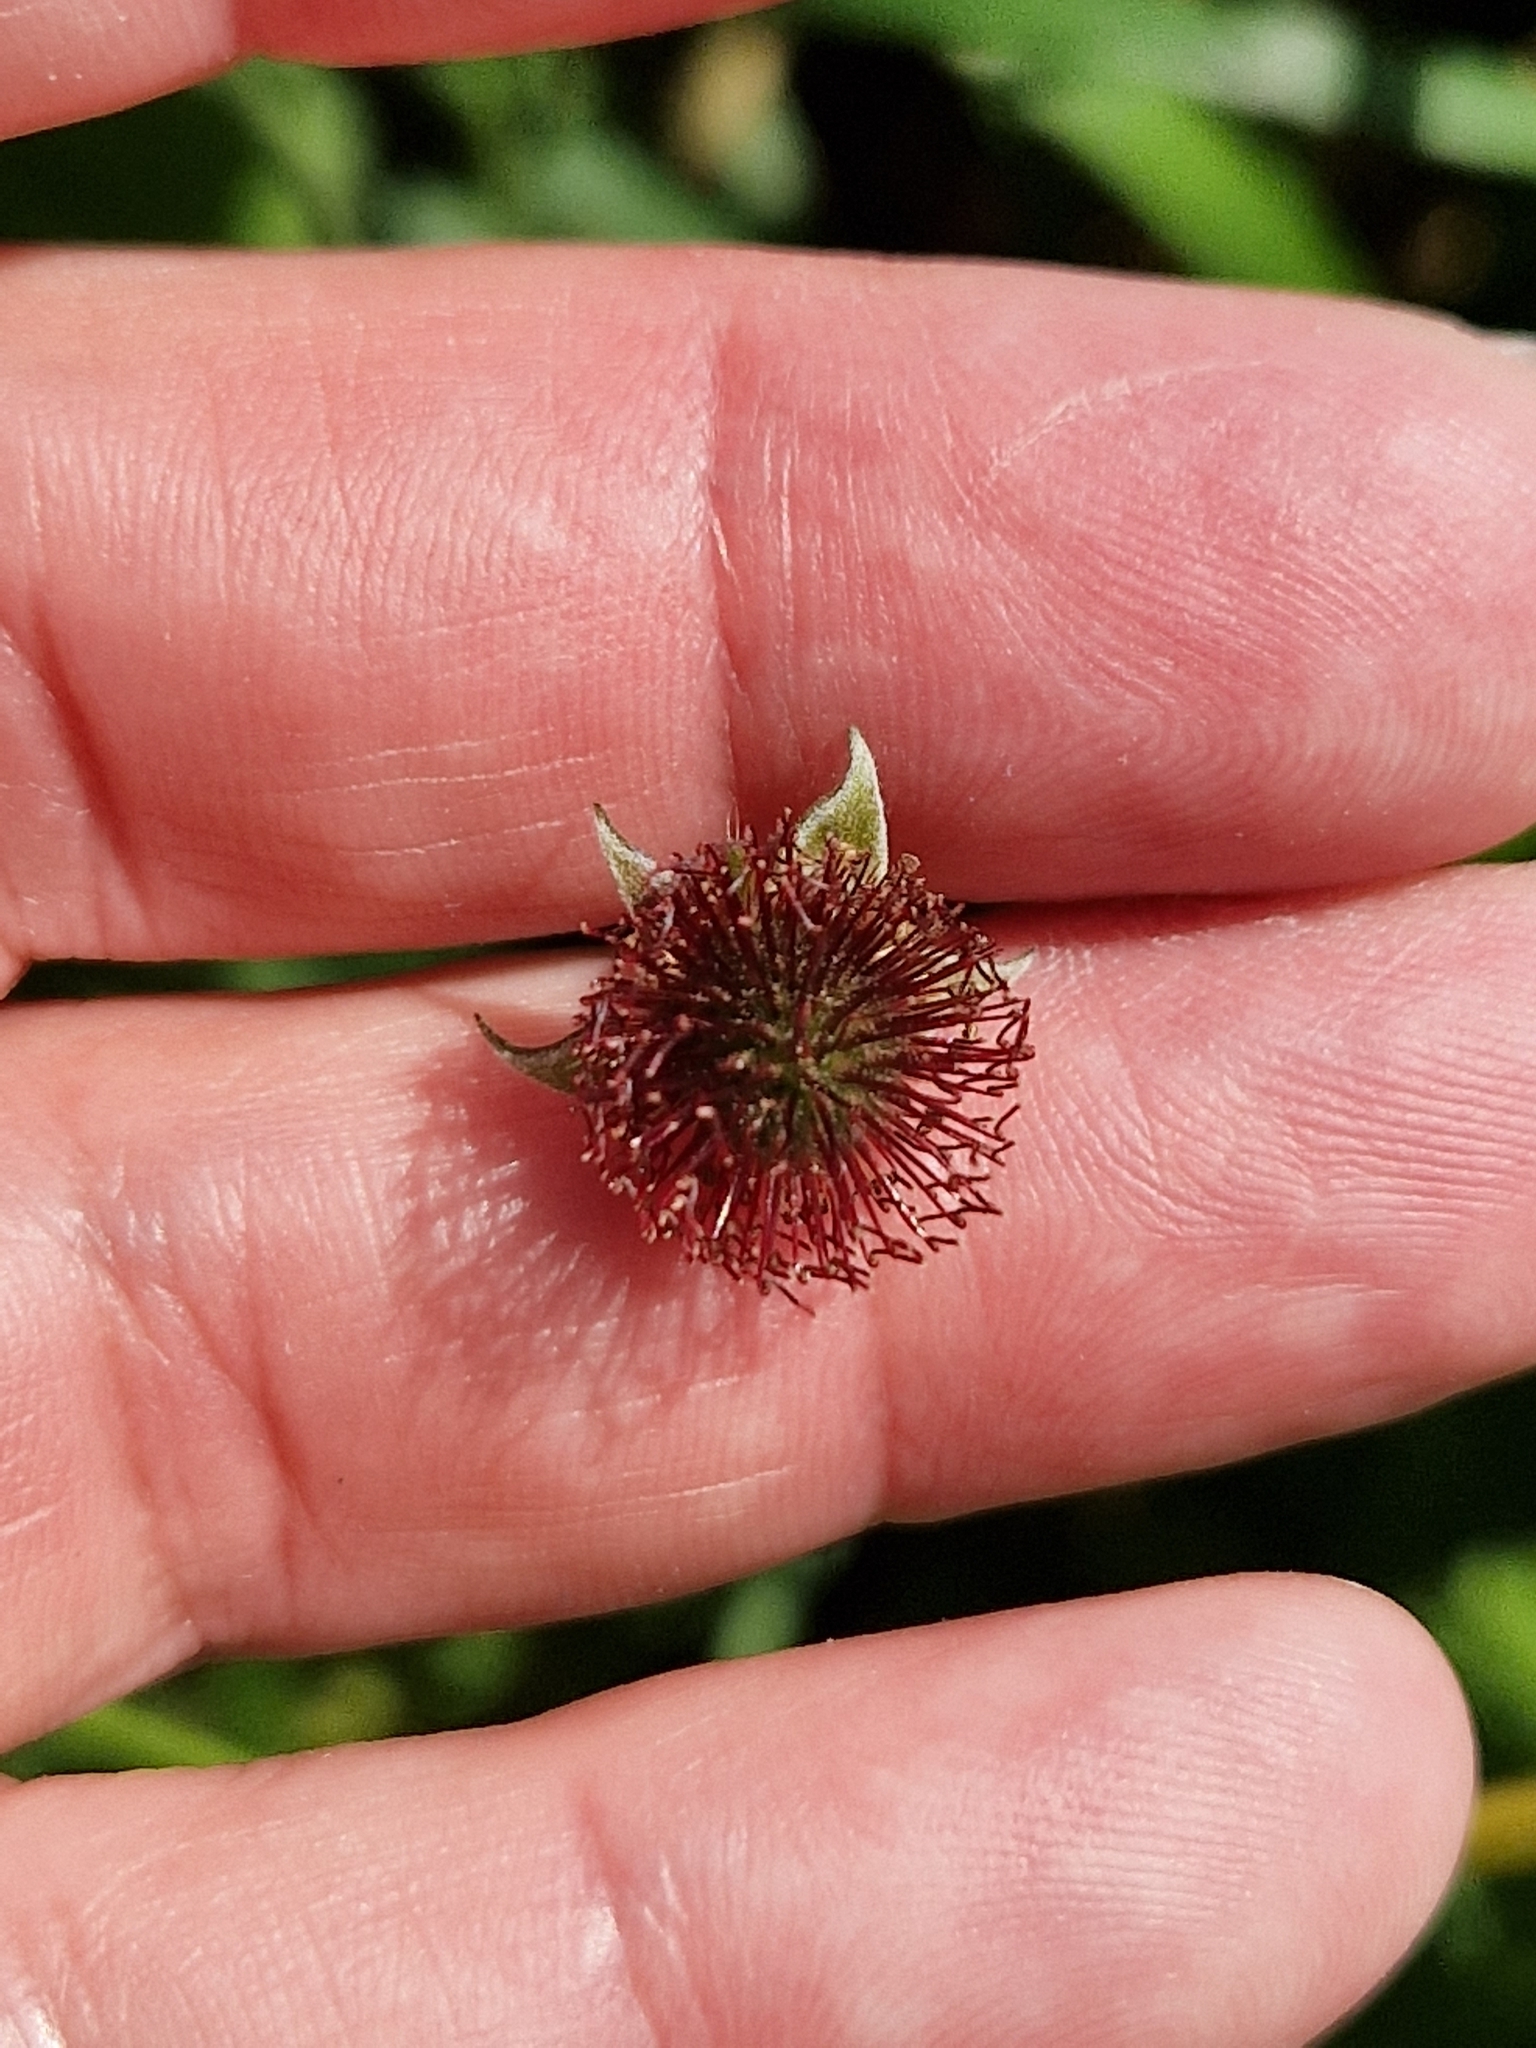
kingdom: Plantae
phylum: Tracheophyta
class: Magnoliopsida
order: Rosales
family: Rosaceae
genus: Geum
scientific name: Geum urbanum
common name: Wood avens
